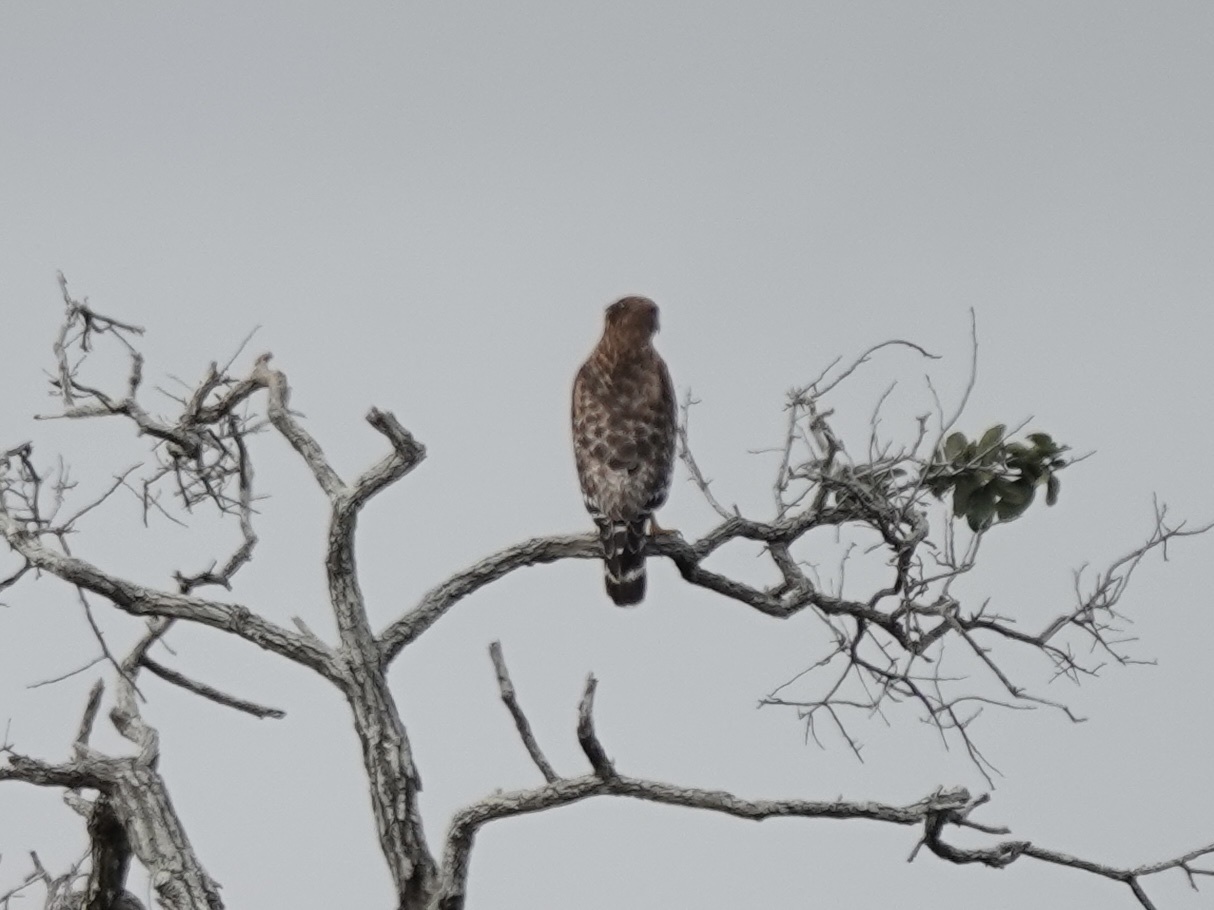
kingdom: Animalia
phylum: Chordata
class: Aves
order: Accipitriformes
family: Accipitridae
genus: Buteo
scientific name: Buteo lineatus
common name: Red-shouldered hawk
